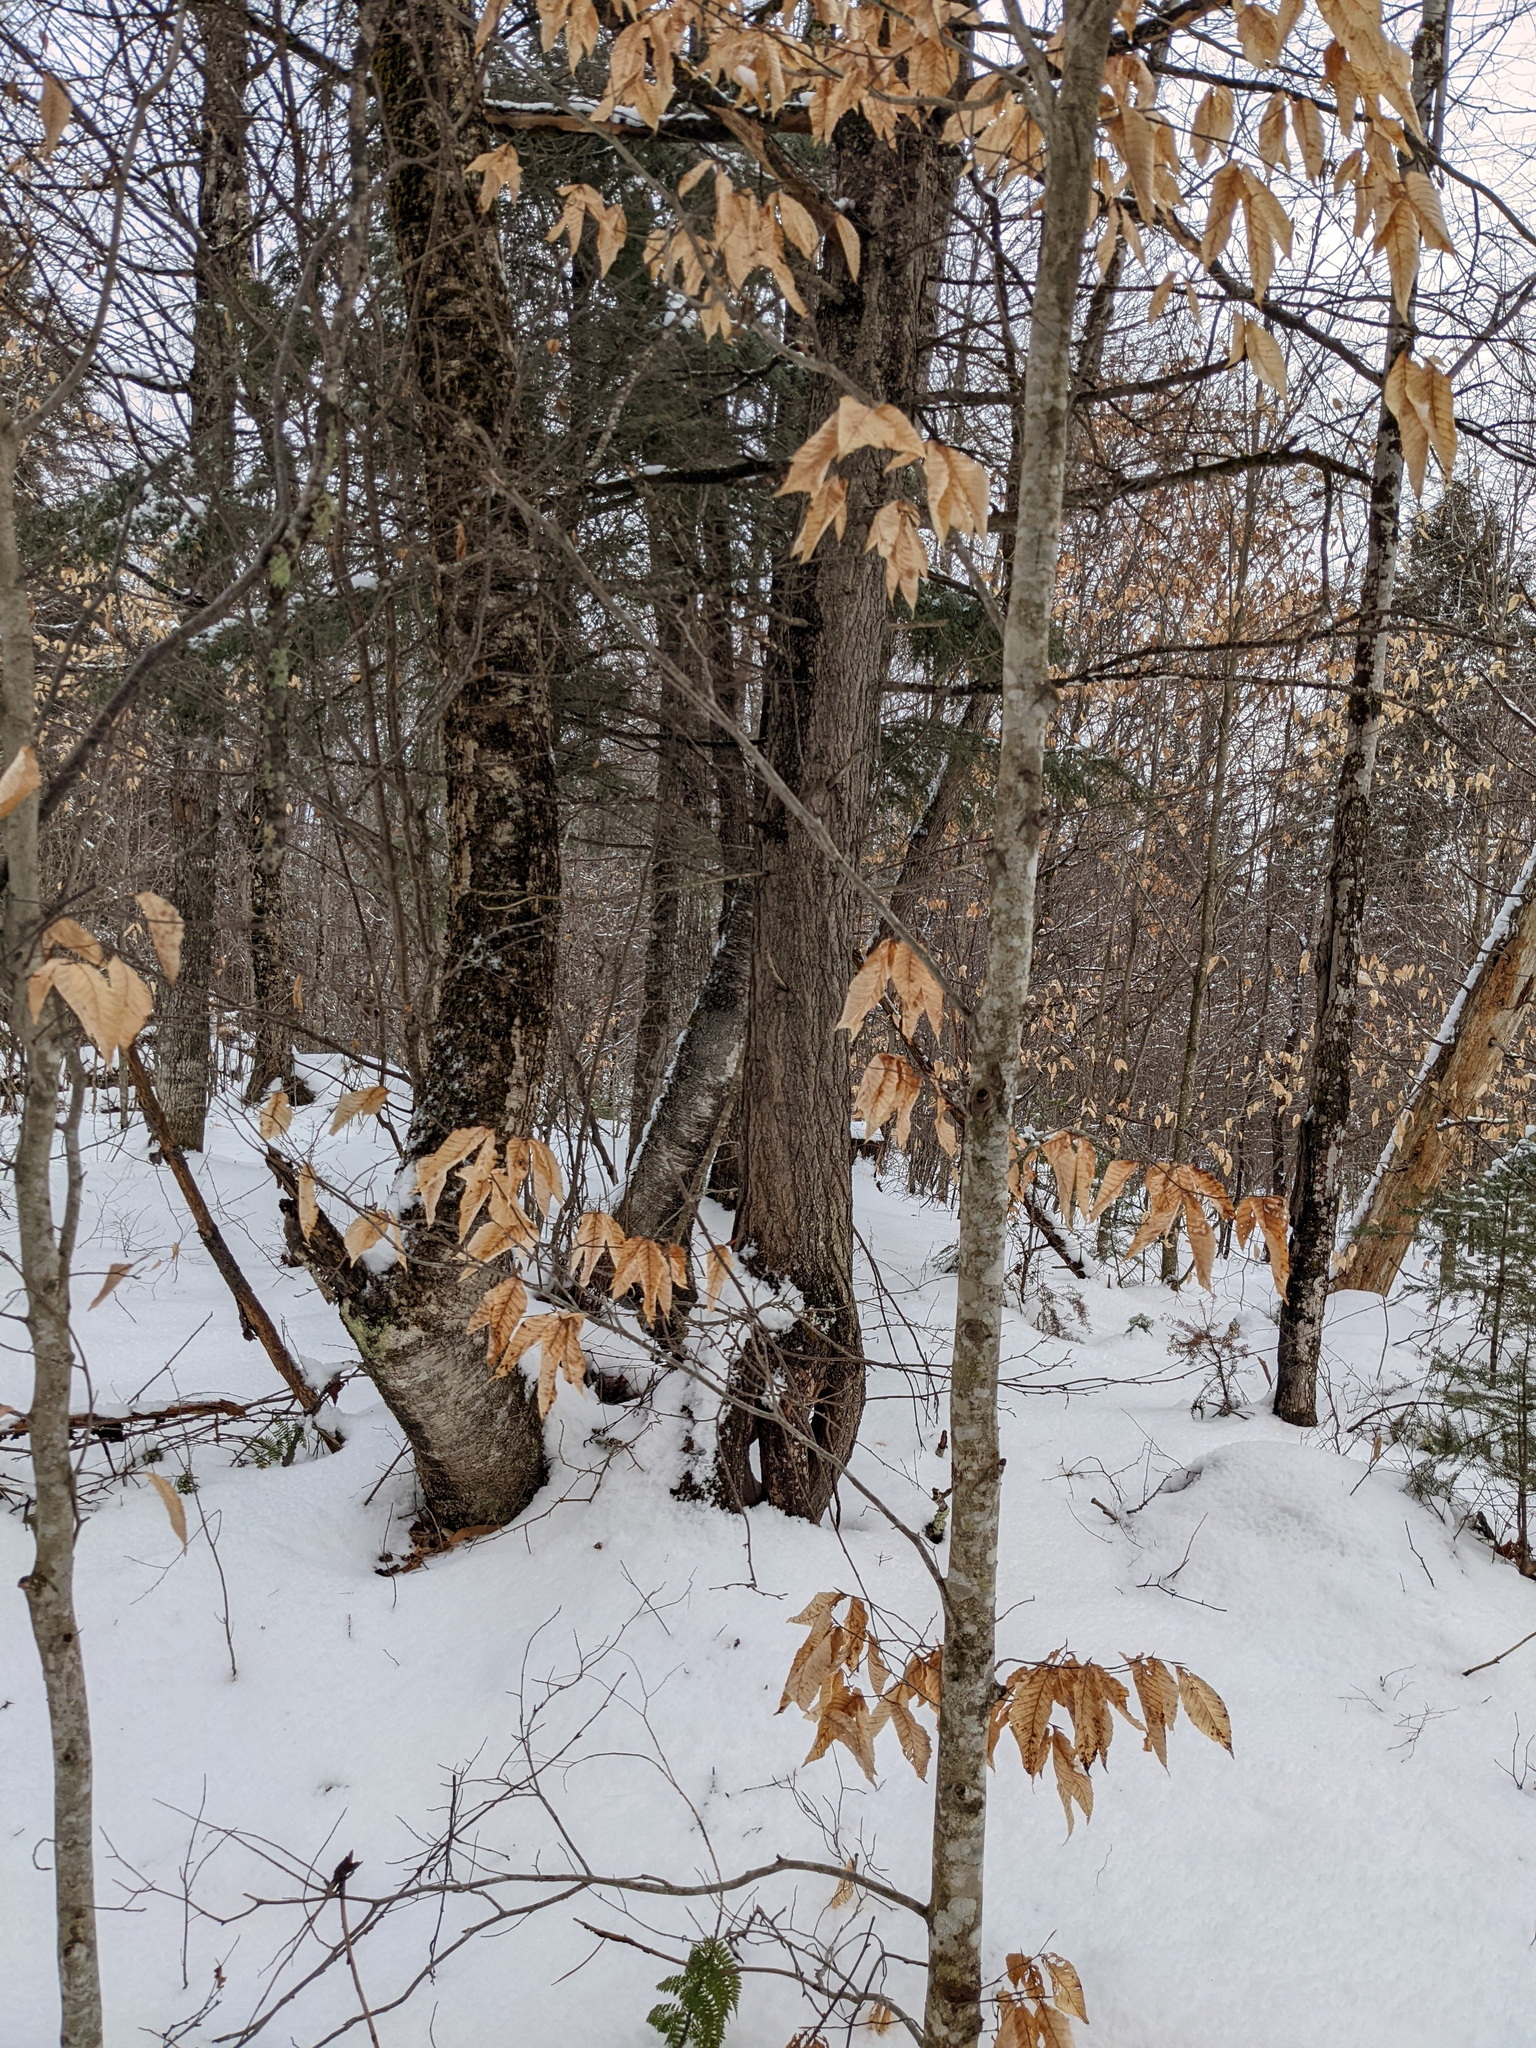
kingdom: Plantae
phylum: Tracheophyta
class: Magnoliopsida
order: Fagales
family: Fagaceae
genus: Fagus
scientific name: Fagus grandifolia
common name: American beech
